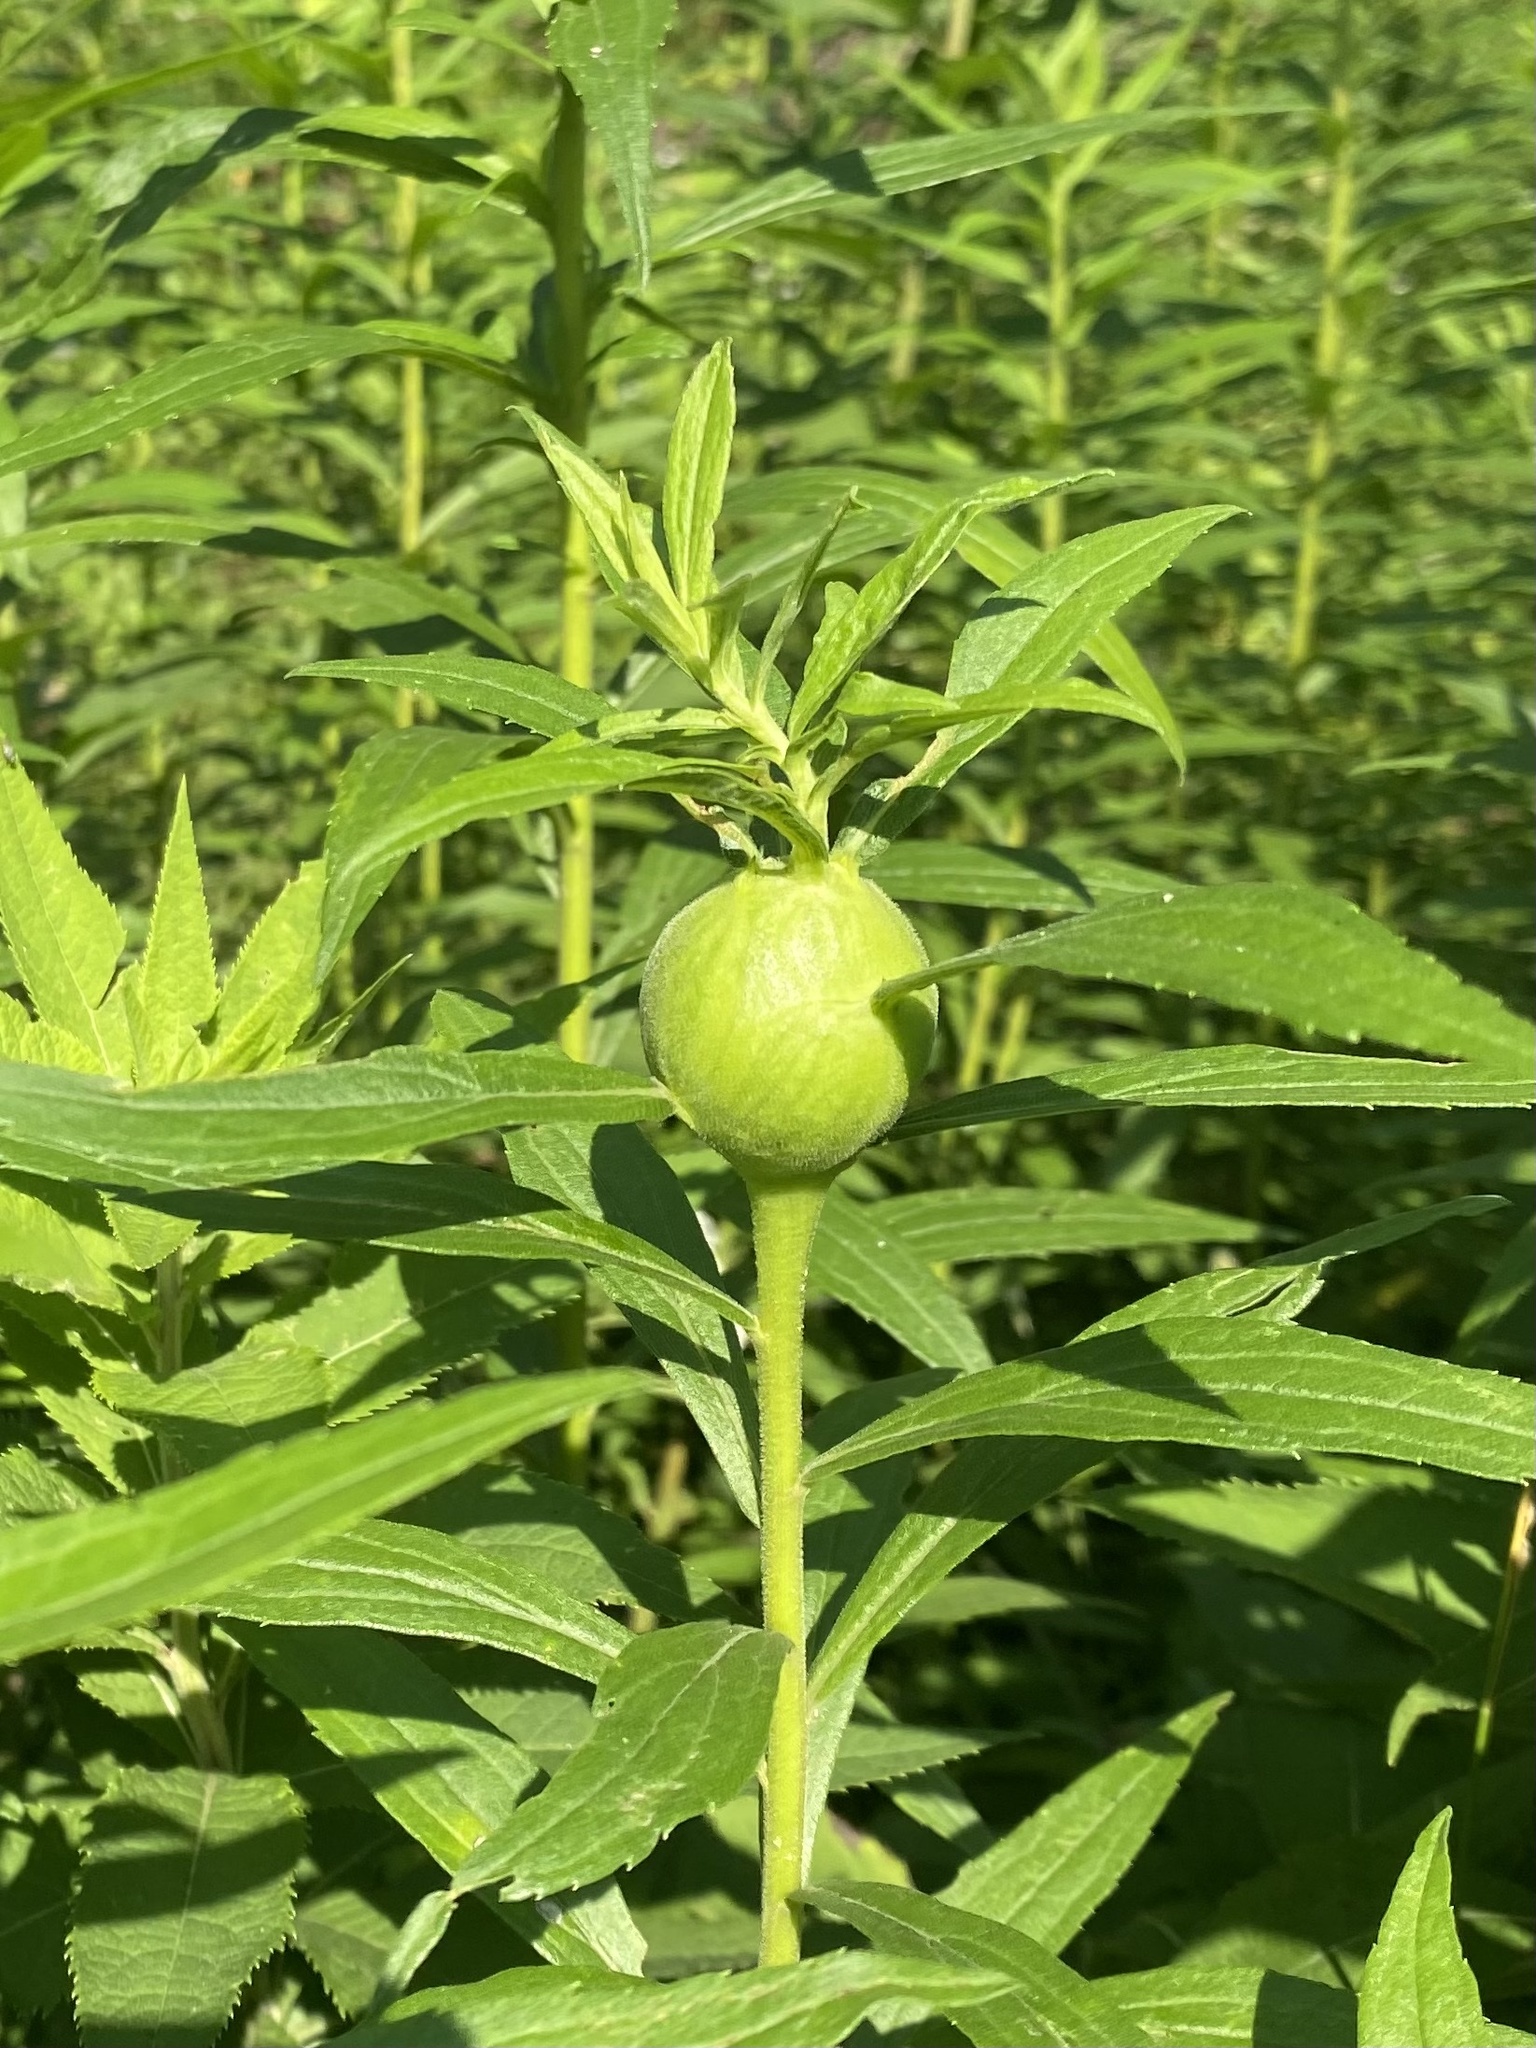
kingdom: Animalia
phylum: Arthropoda
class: Insecta
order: Diptera
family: Tephritidae
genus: Eurosta
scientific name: Eurosta solidaginis
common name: Goldenrod gall fly
